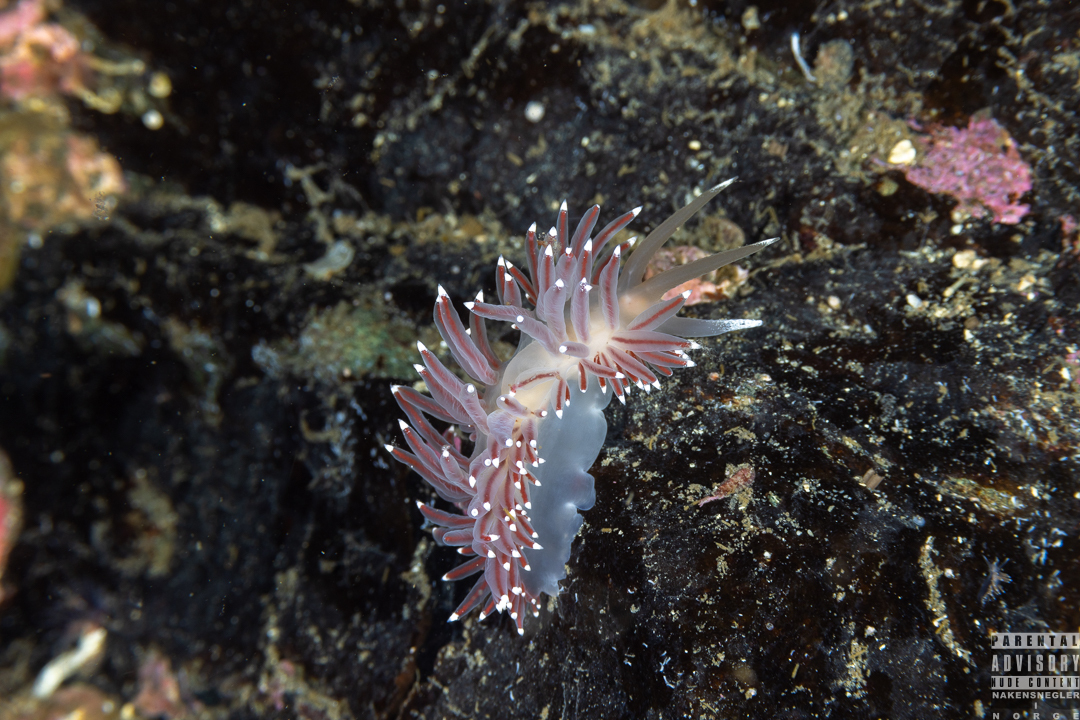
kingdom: Animalia
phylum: Mollusca
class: Gastropoda
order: Nudibranchia
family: Coryphellidae
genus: Coryphella
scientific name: Coryphella browni
